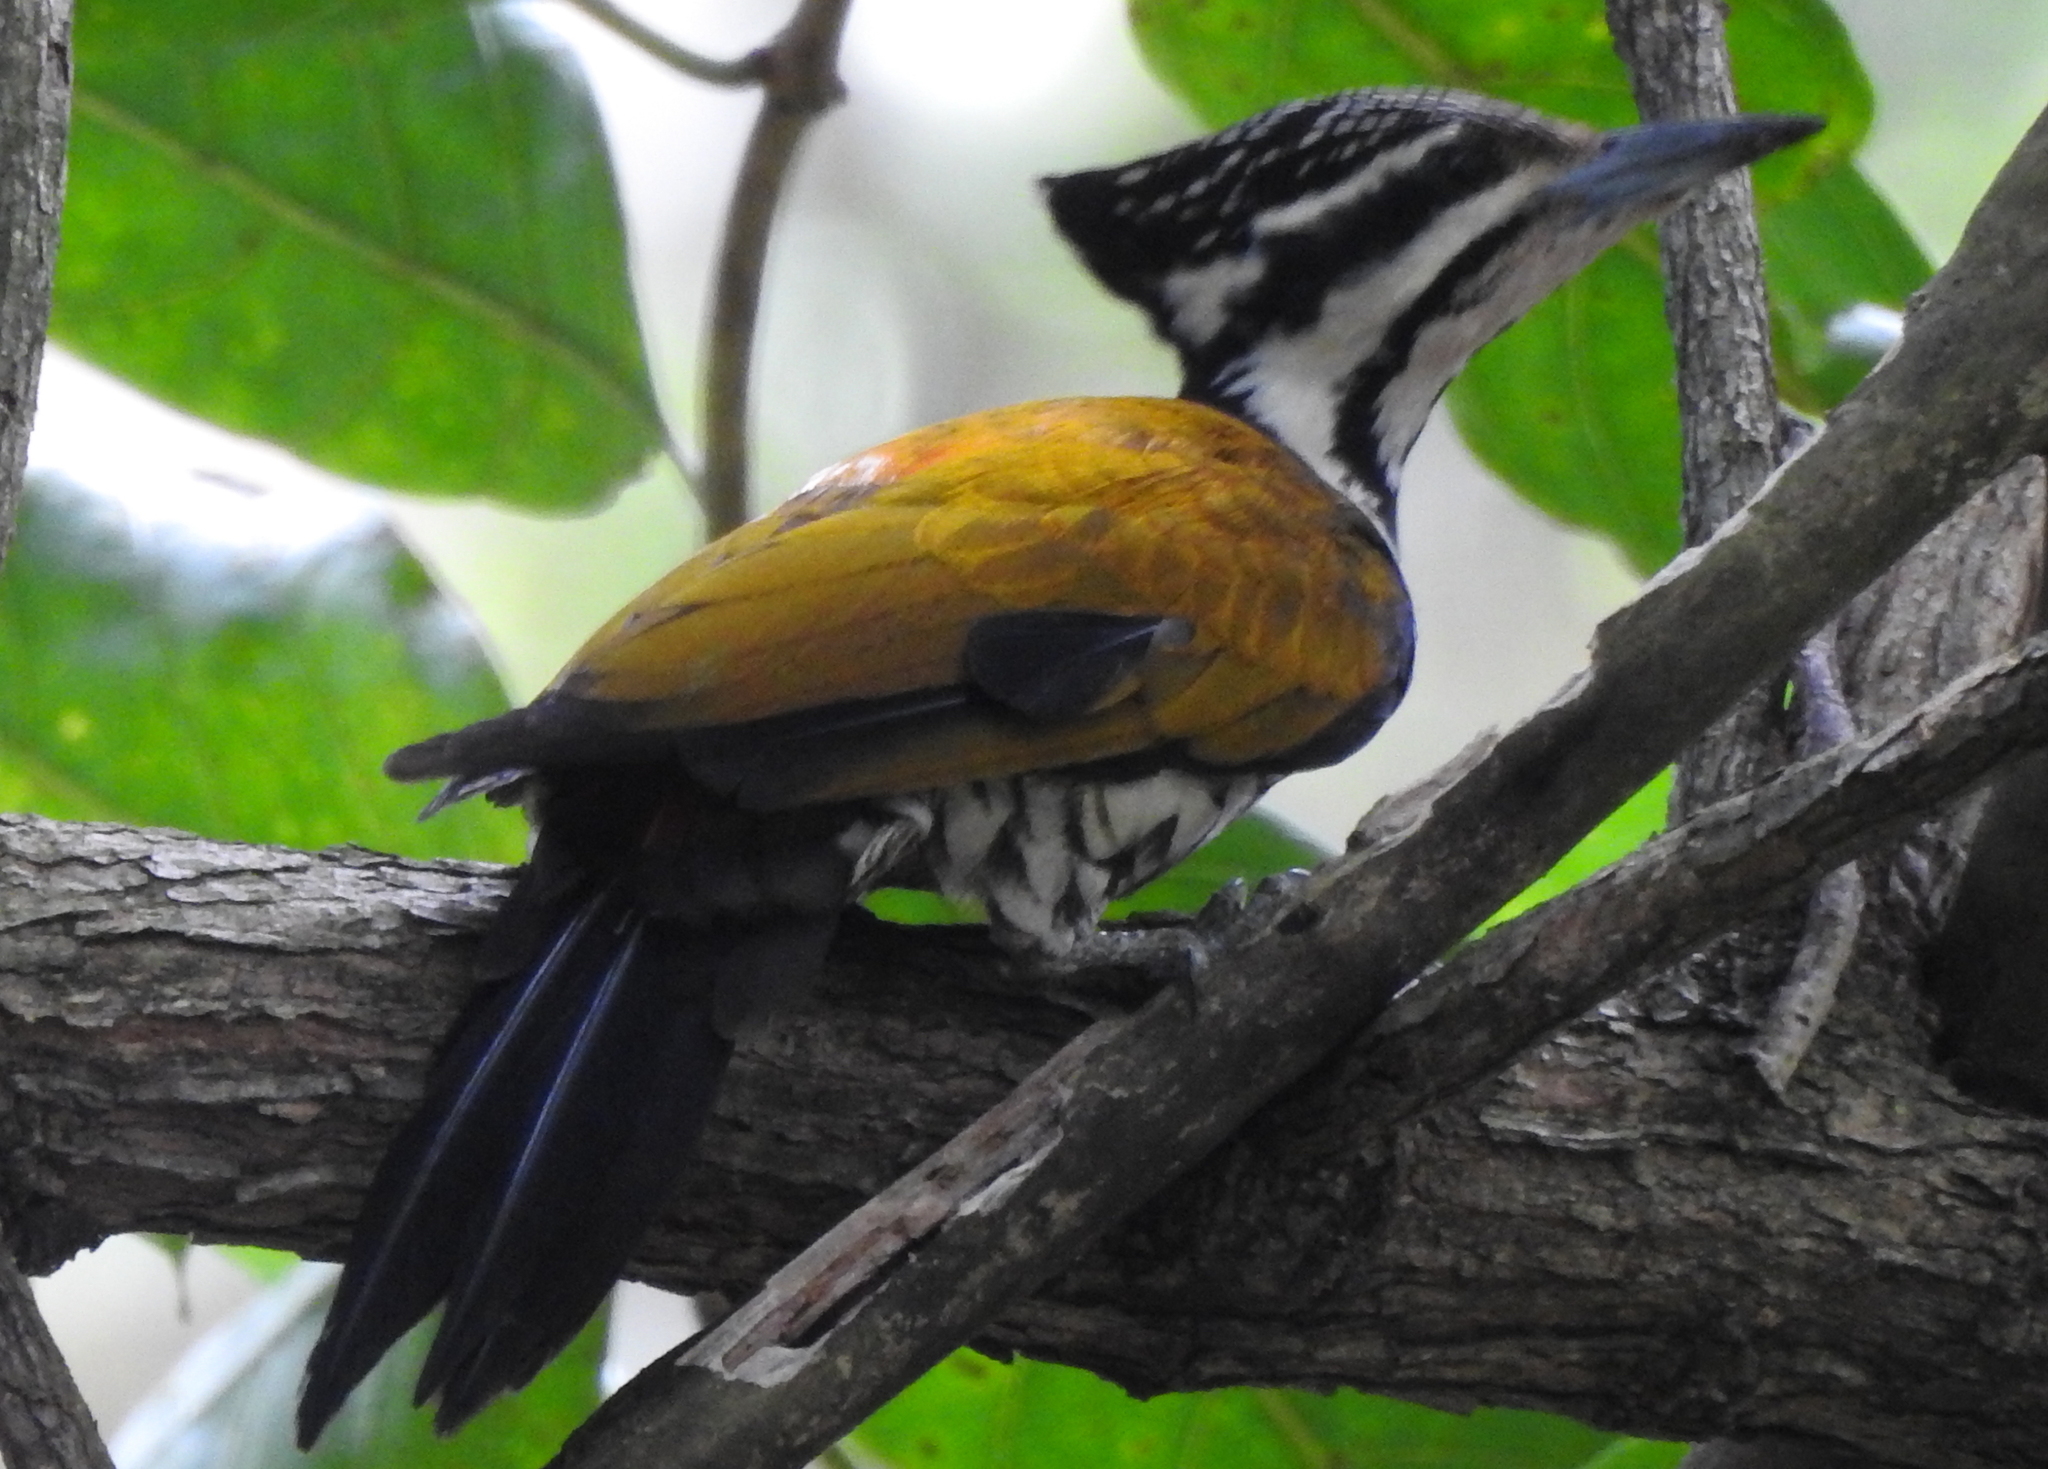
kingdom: Animalia
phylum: Chordata
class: Aves
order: Piciformes
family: Picidae
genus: Dinopium
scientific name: Dinopium javanense
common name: Common flameback
